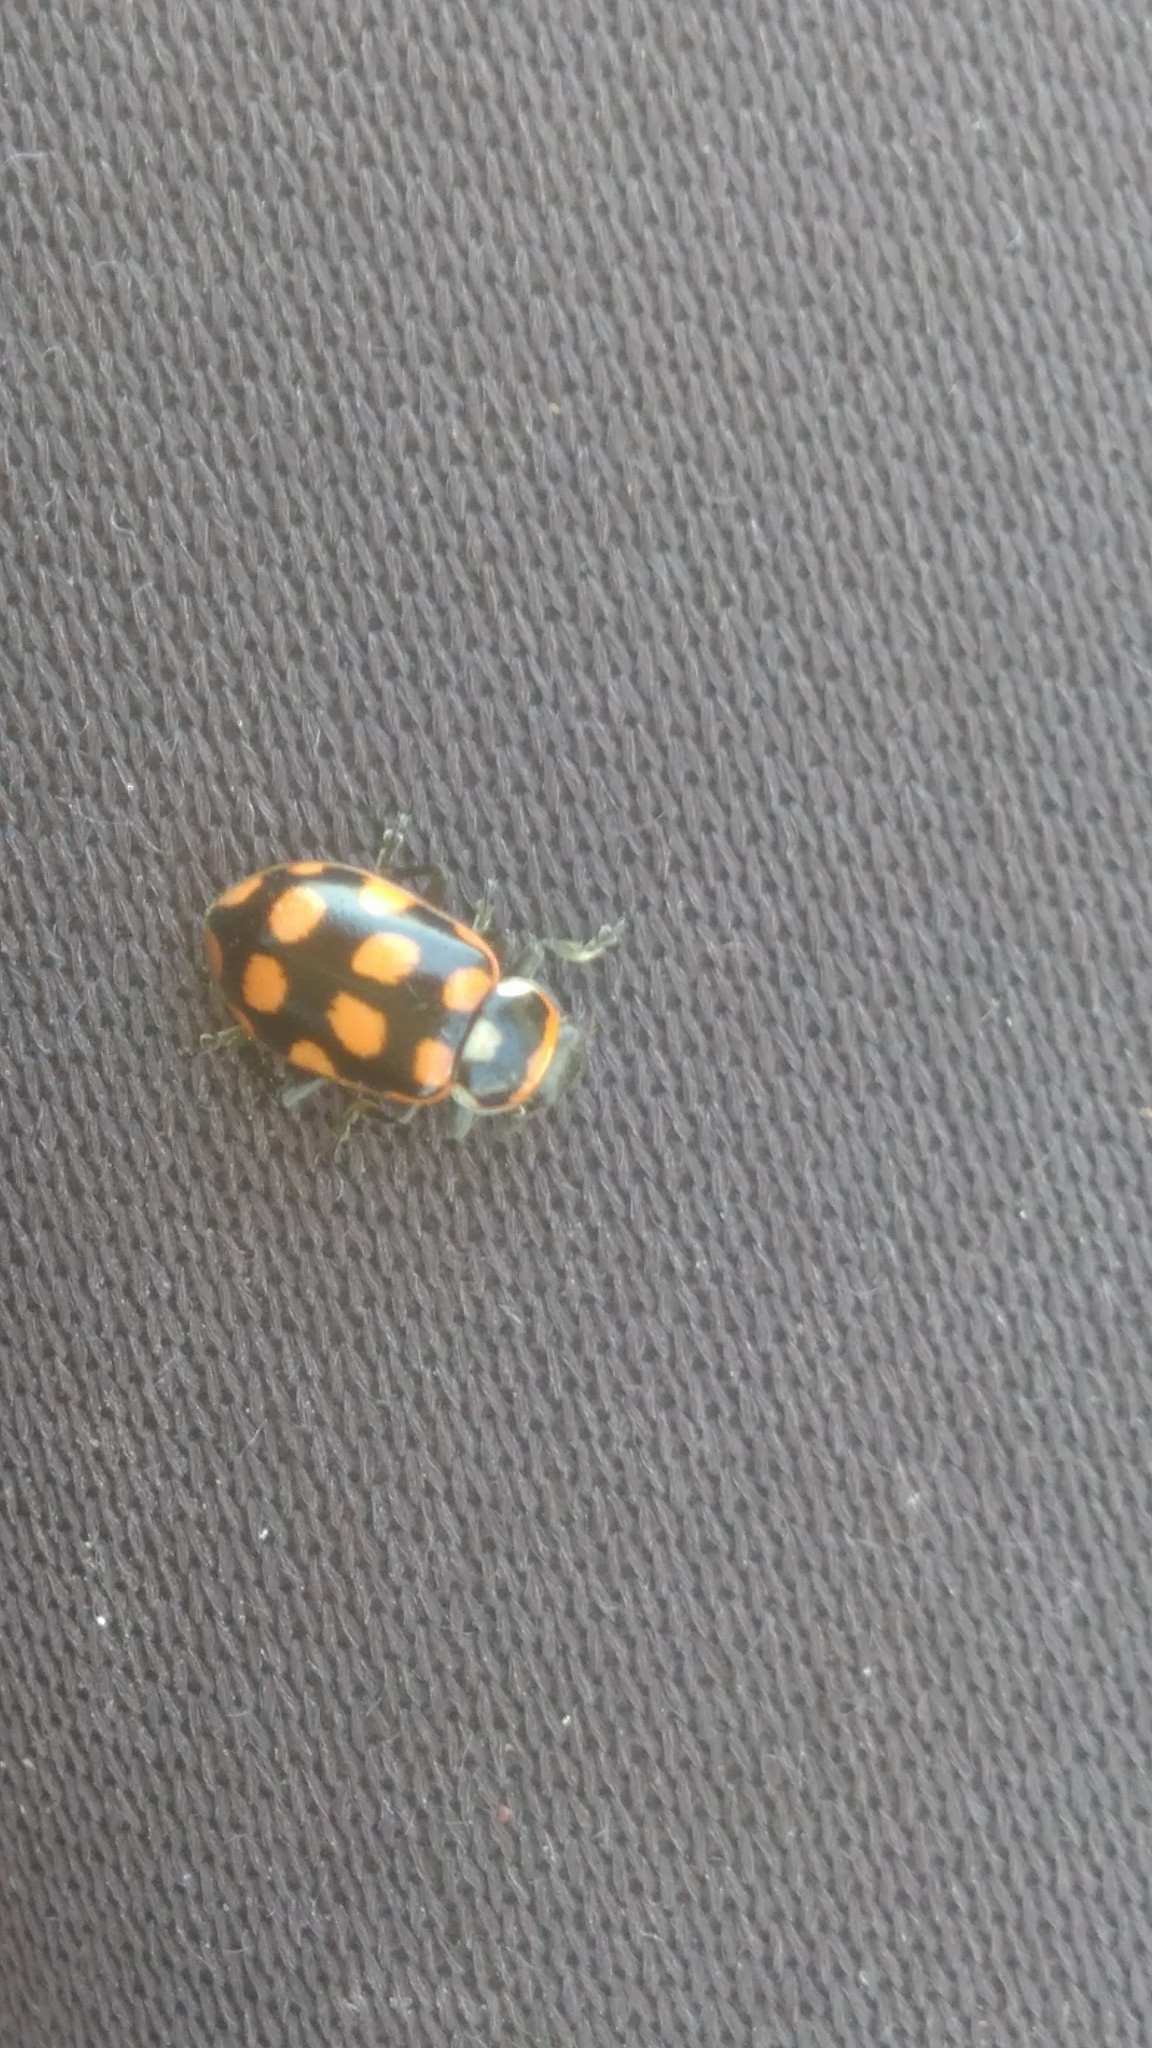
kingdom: Animalia
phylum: Arthropoda
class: Insecta
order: Coleoptera
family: Coccinellidae
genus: Eriopis
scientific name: Eriopis
